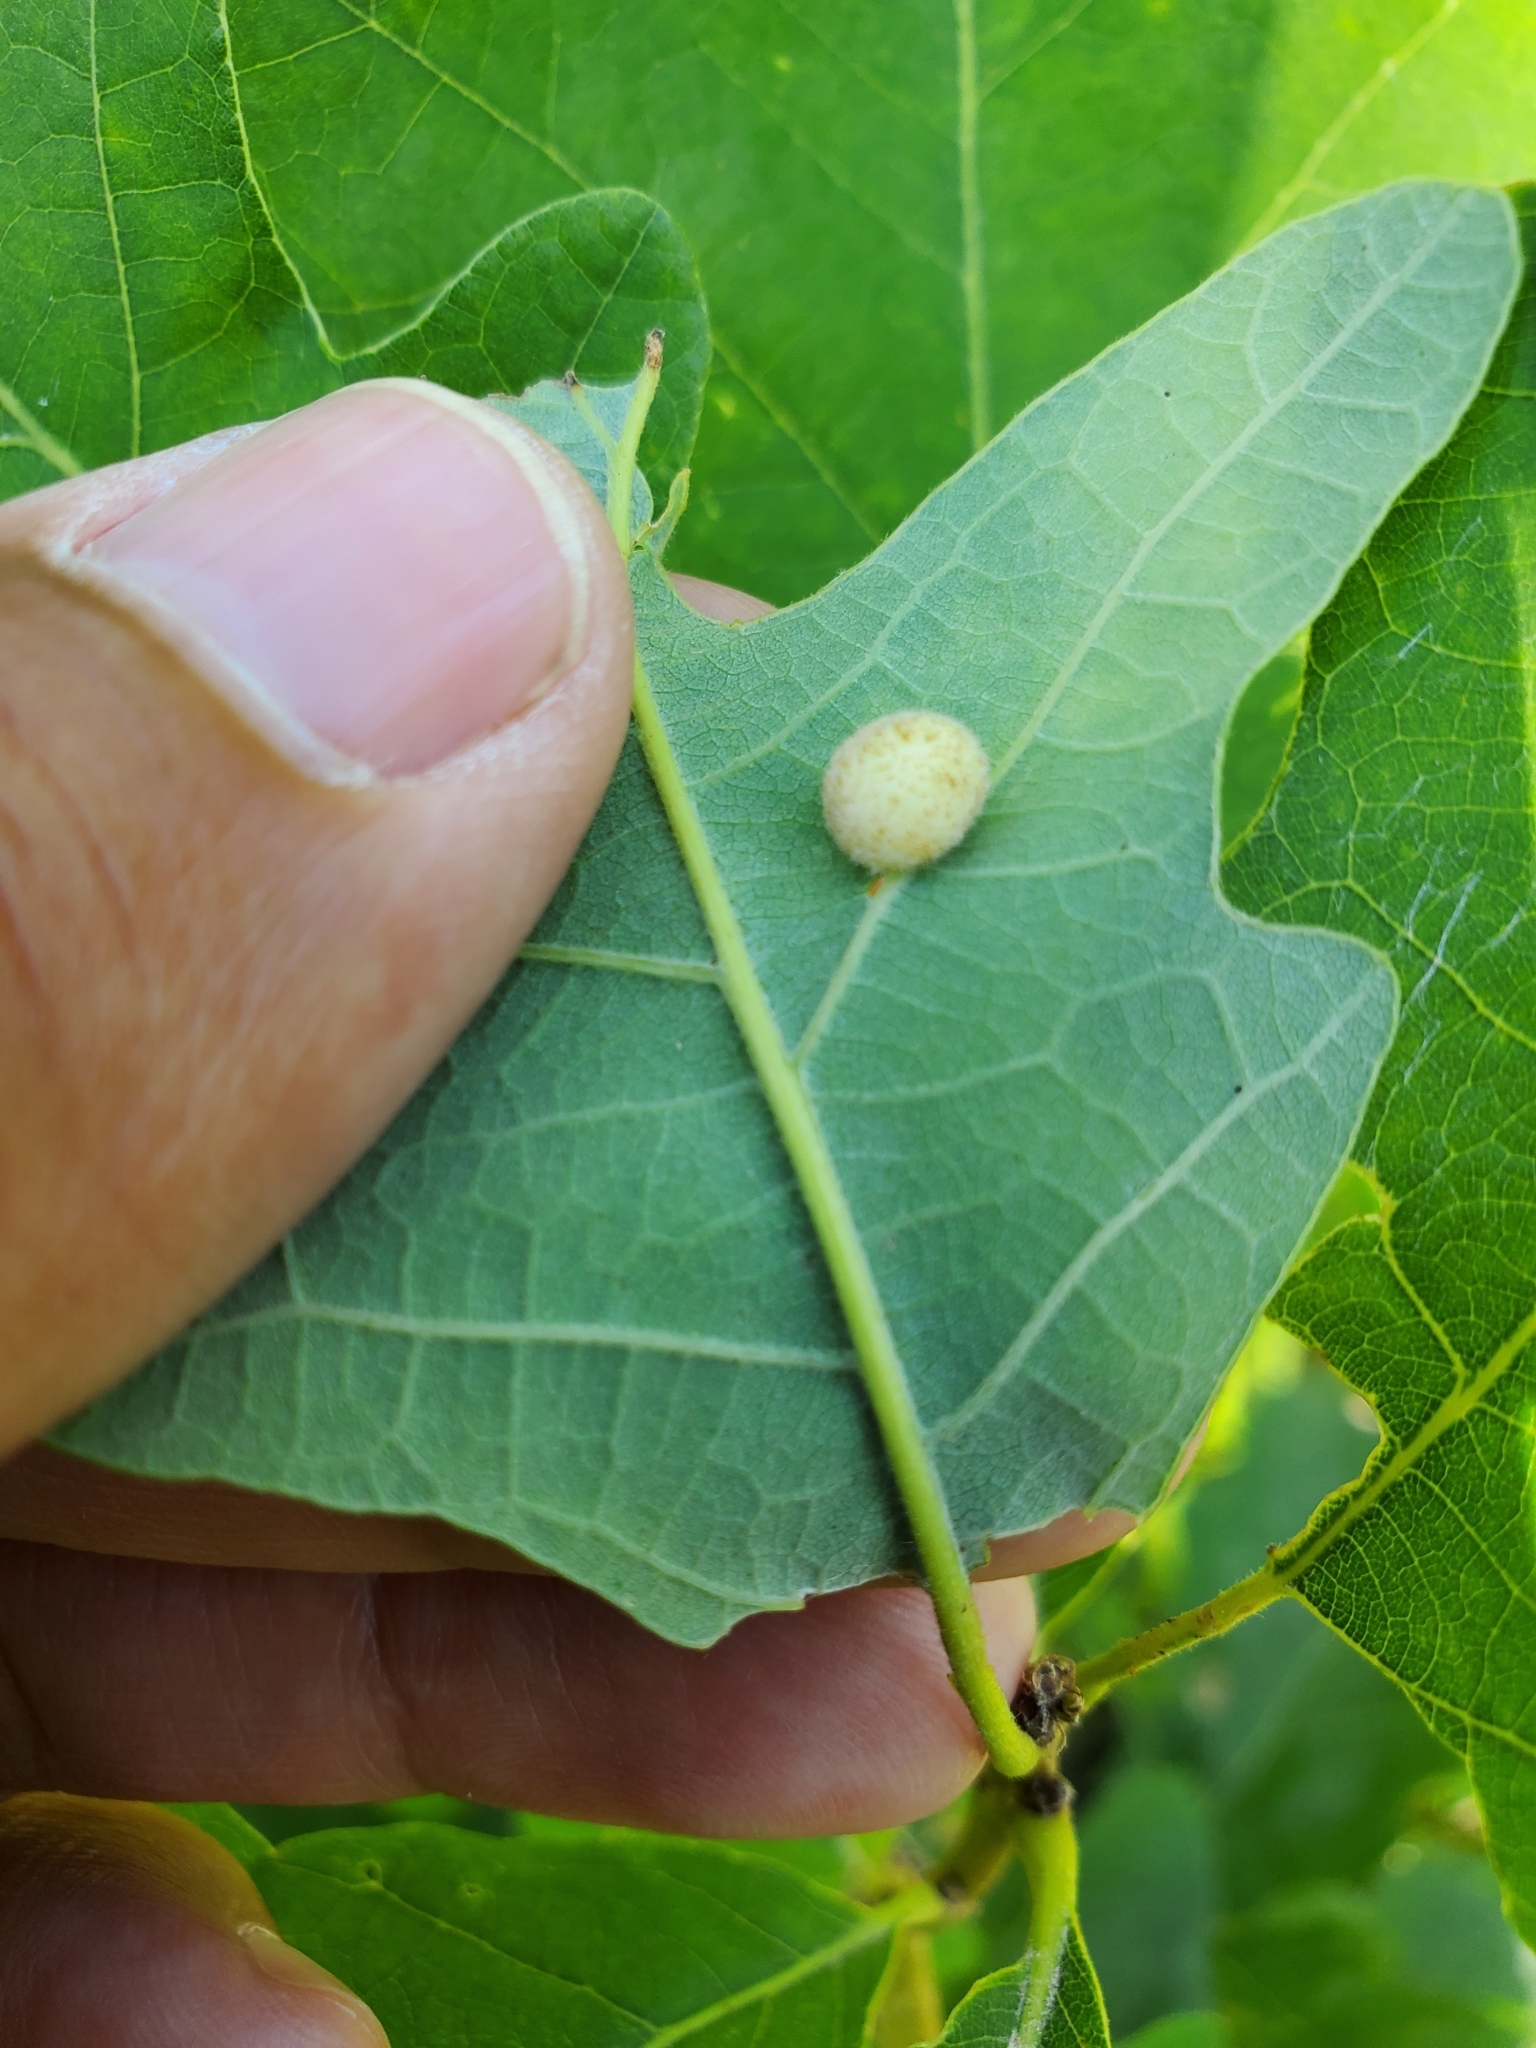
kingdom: Animalia
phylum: Arthropoda
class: Insecta
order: Hymenoptera
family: Cynipidae
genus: Philonix
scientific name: Philonix fulvicollis
